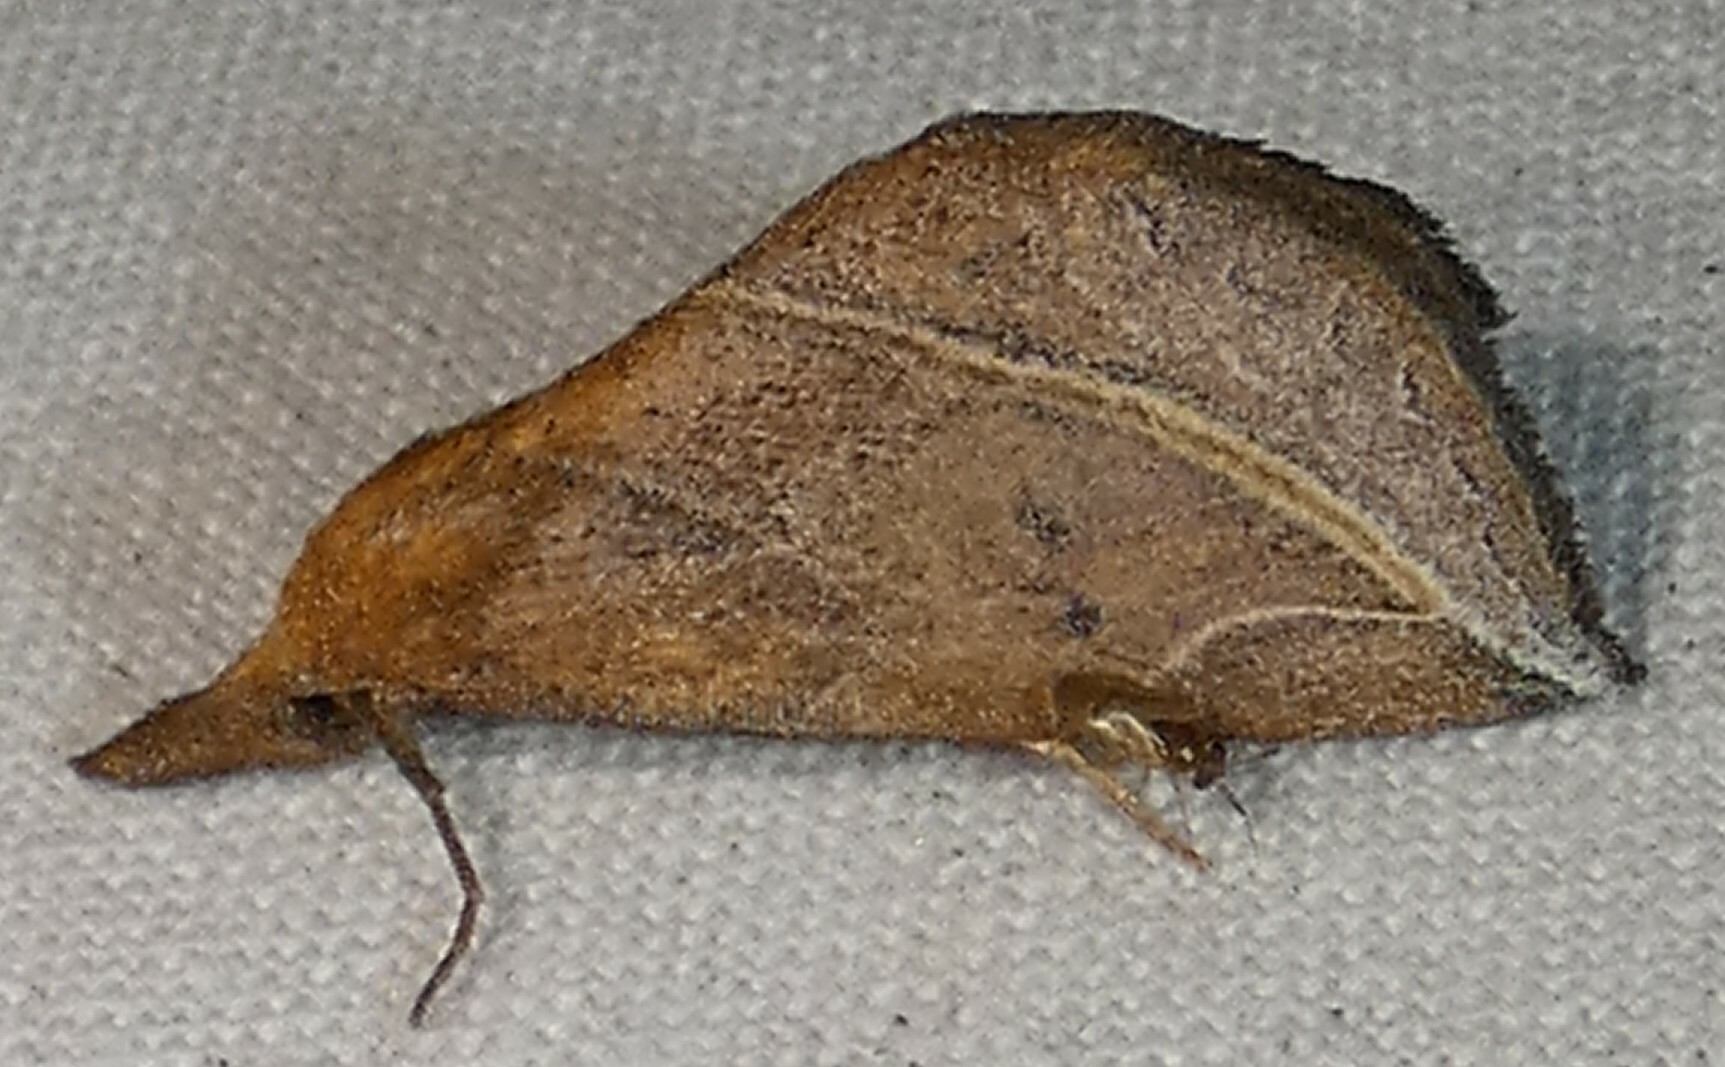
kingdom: Animalia
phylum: Arthropoda
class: Insecta
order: Lepidoptera
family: Erebidae
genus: Phyprosopus
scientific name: Phyprosopus callitrichoides
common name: Curved-lined owlet
